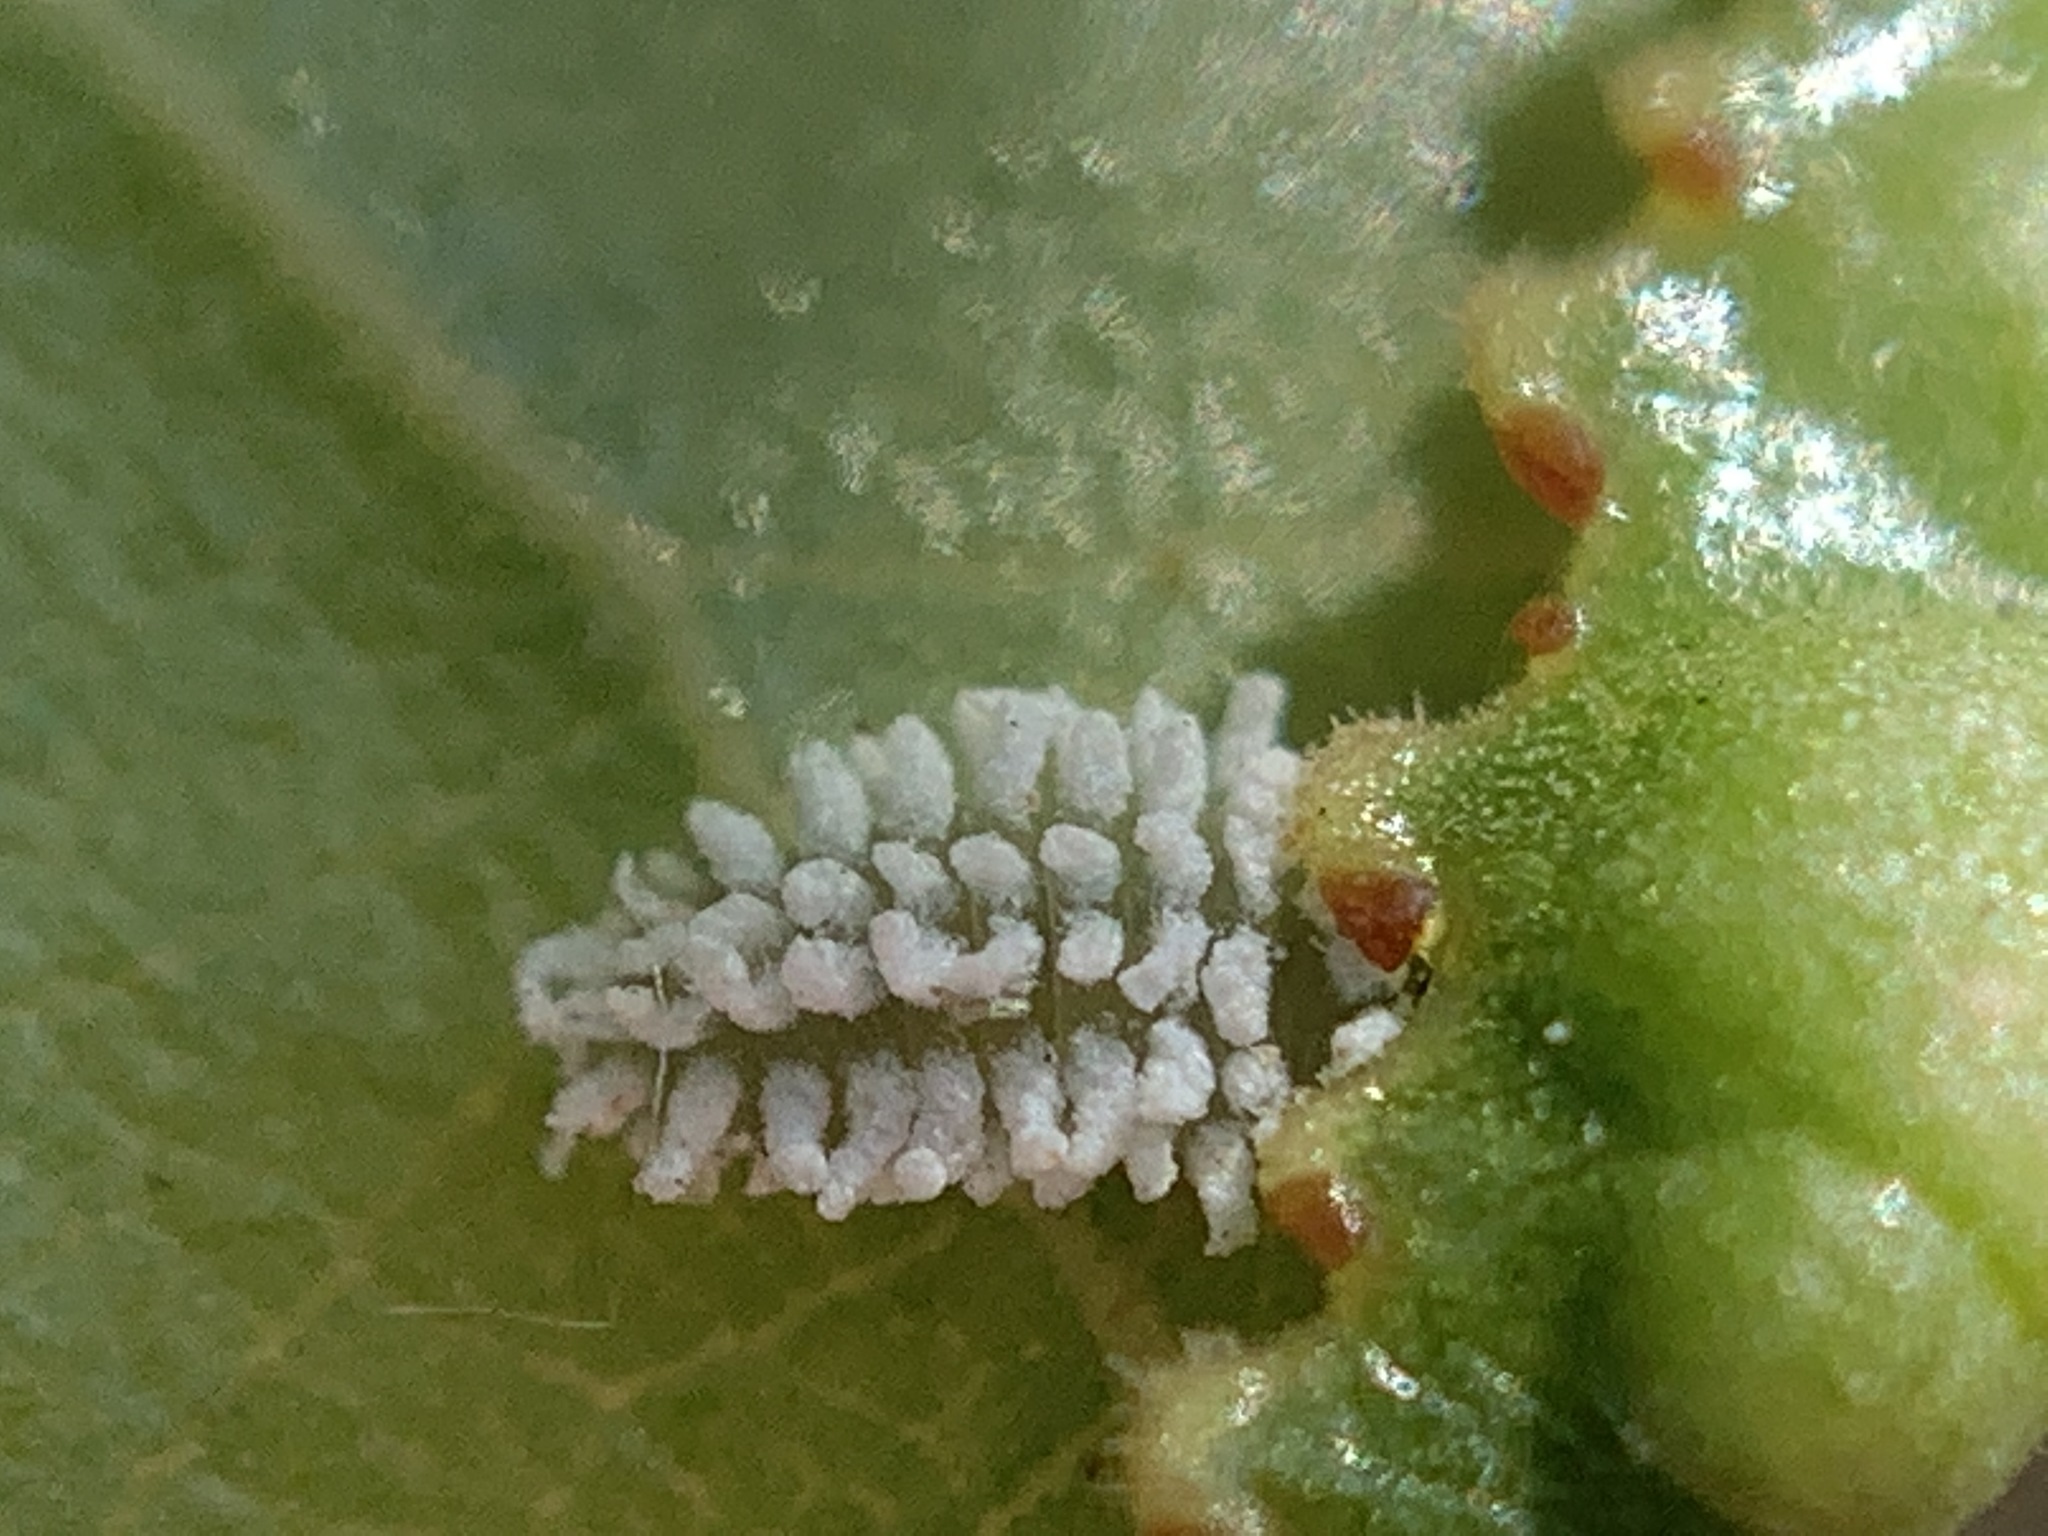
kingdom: Animalia
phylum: Arthropoda
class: Insecta
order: Coleoptera
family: Coccinellidae
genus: Cryptolaemus
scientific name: Cryptolaemus montrouzieri
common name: Mealybug destroyer
